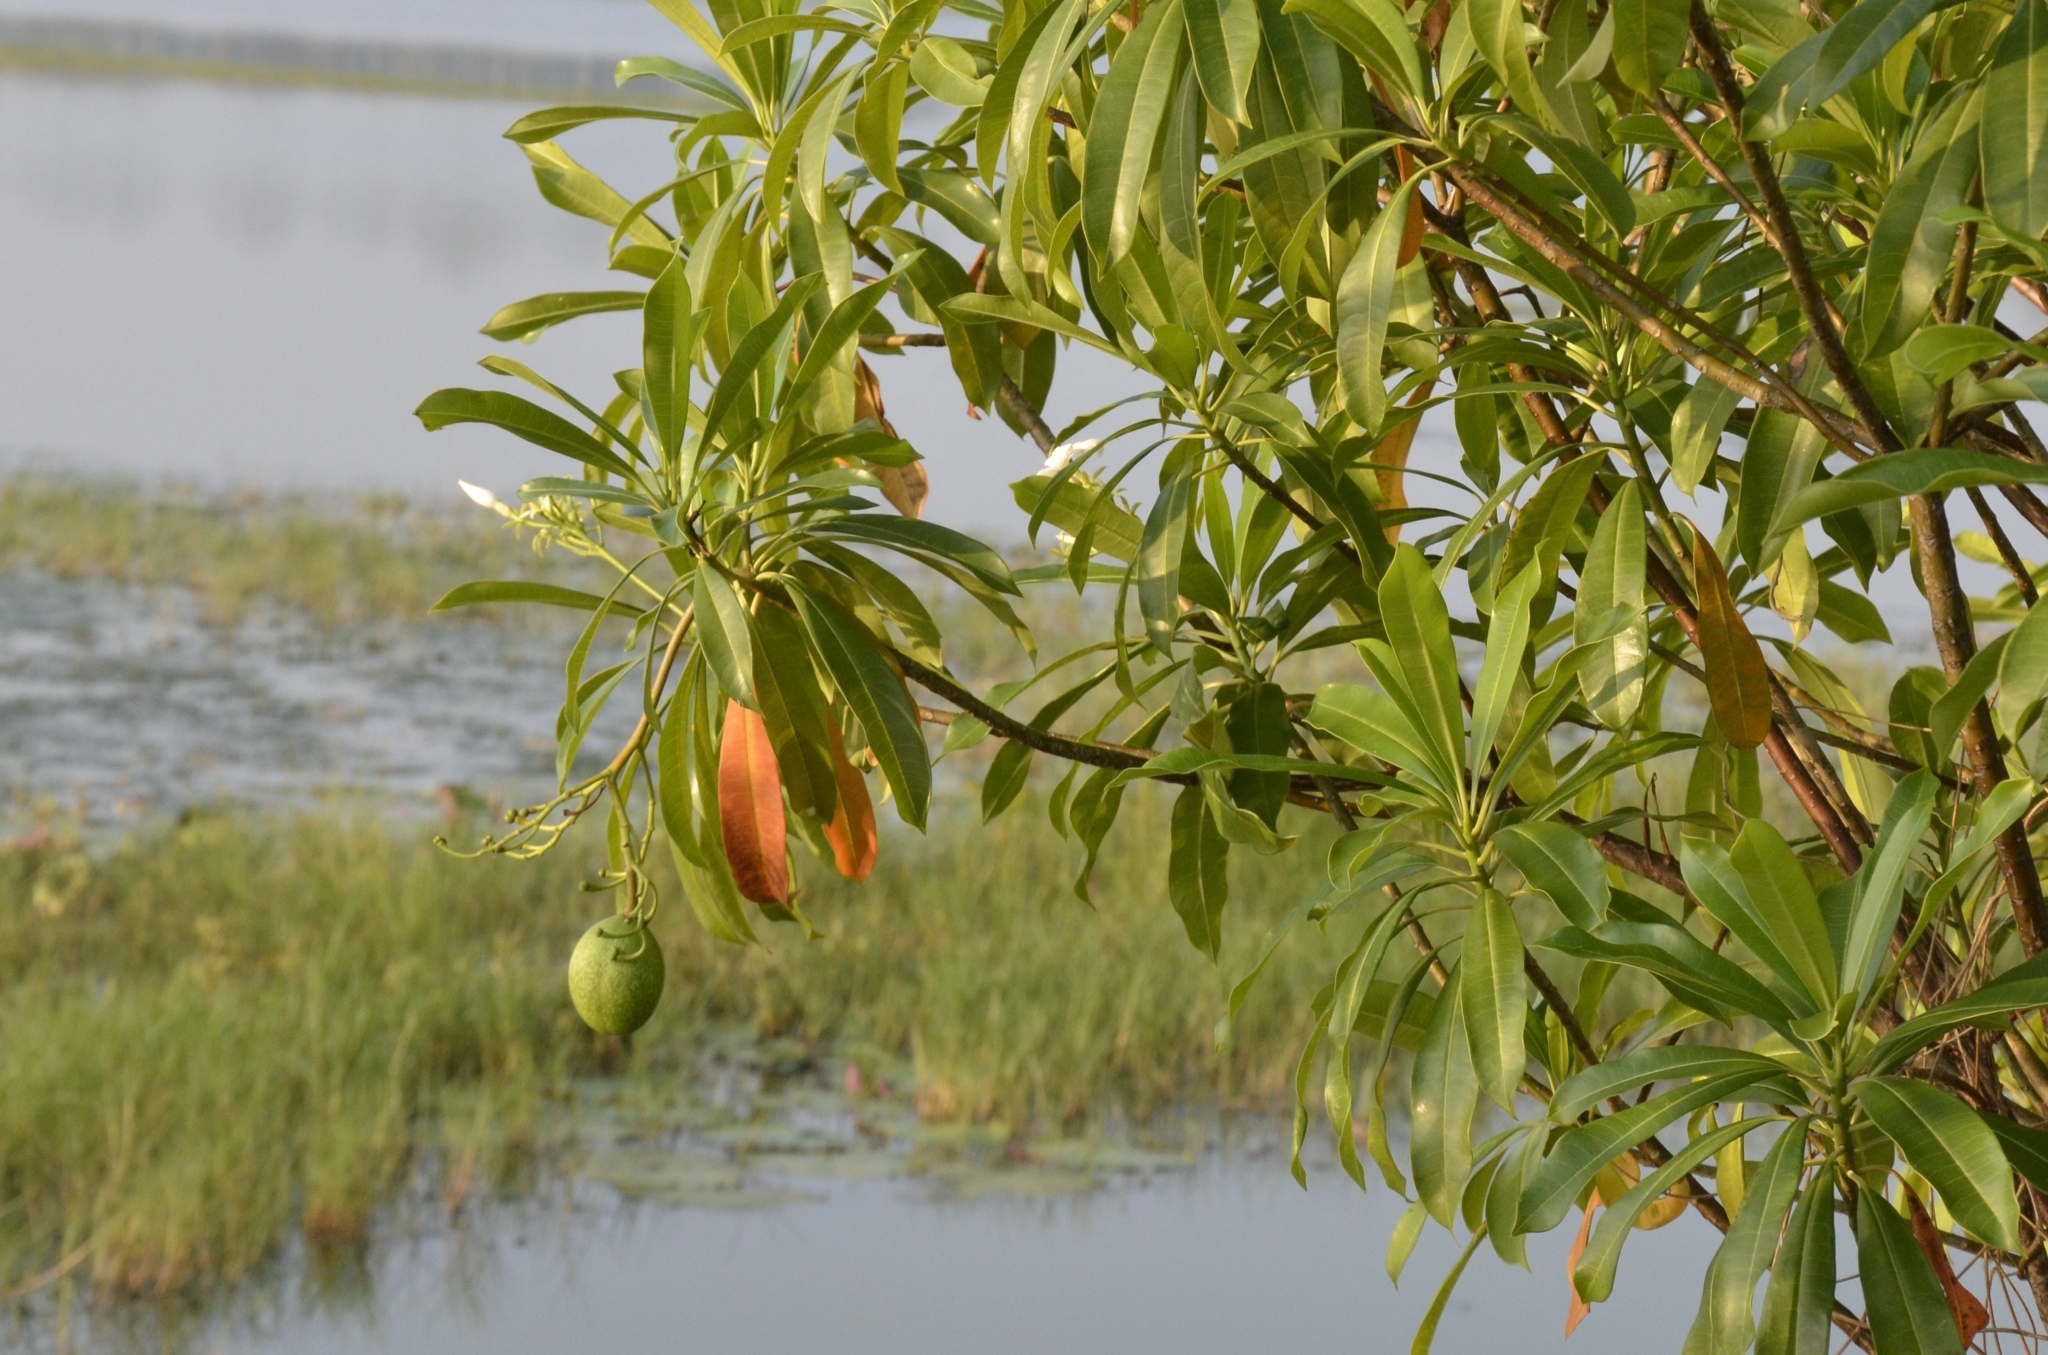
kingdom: Plantae
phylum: Tracheophyta
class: Magnoliopsida
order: Gentianales
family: Apocynaceae
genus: Cerbera
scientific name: Cerbera odollam
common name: Pong-pong
